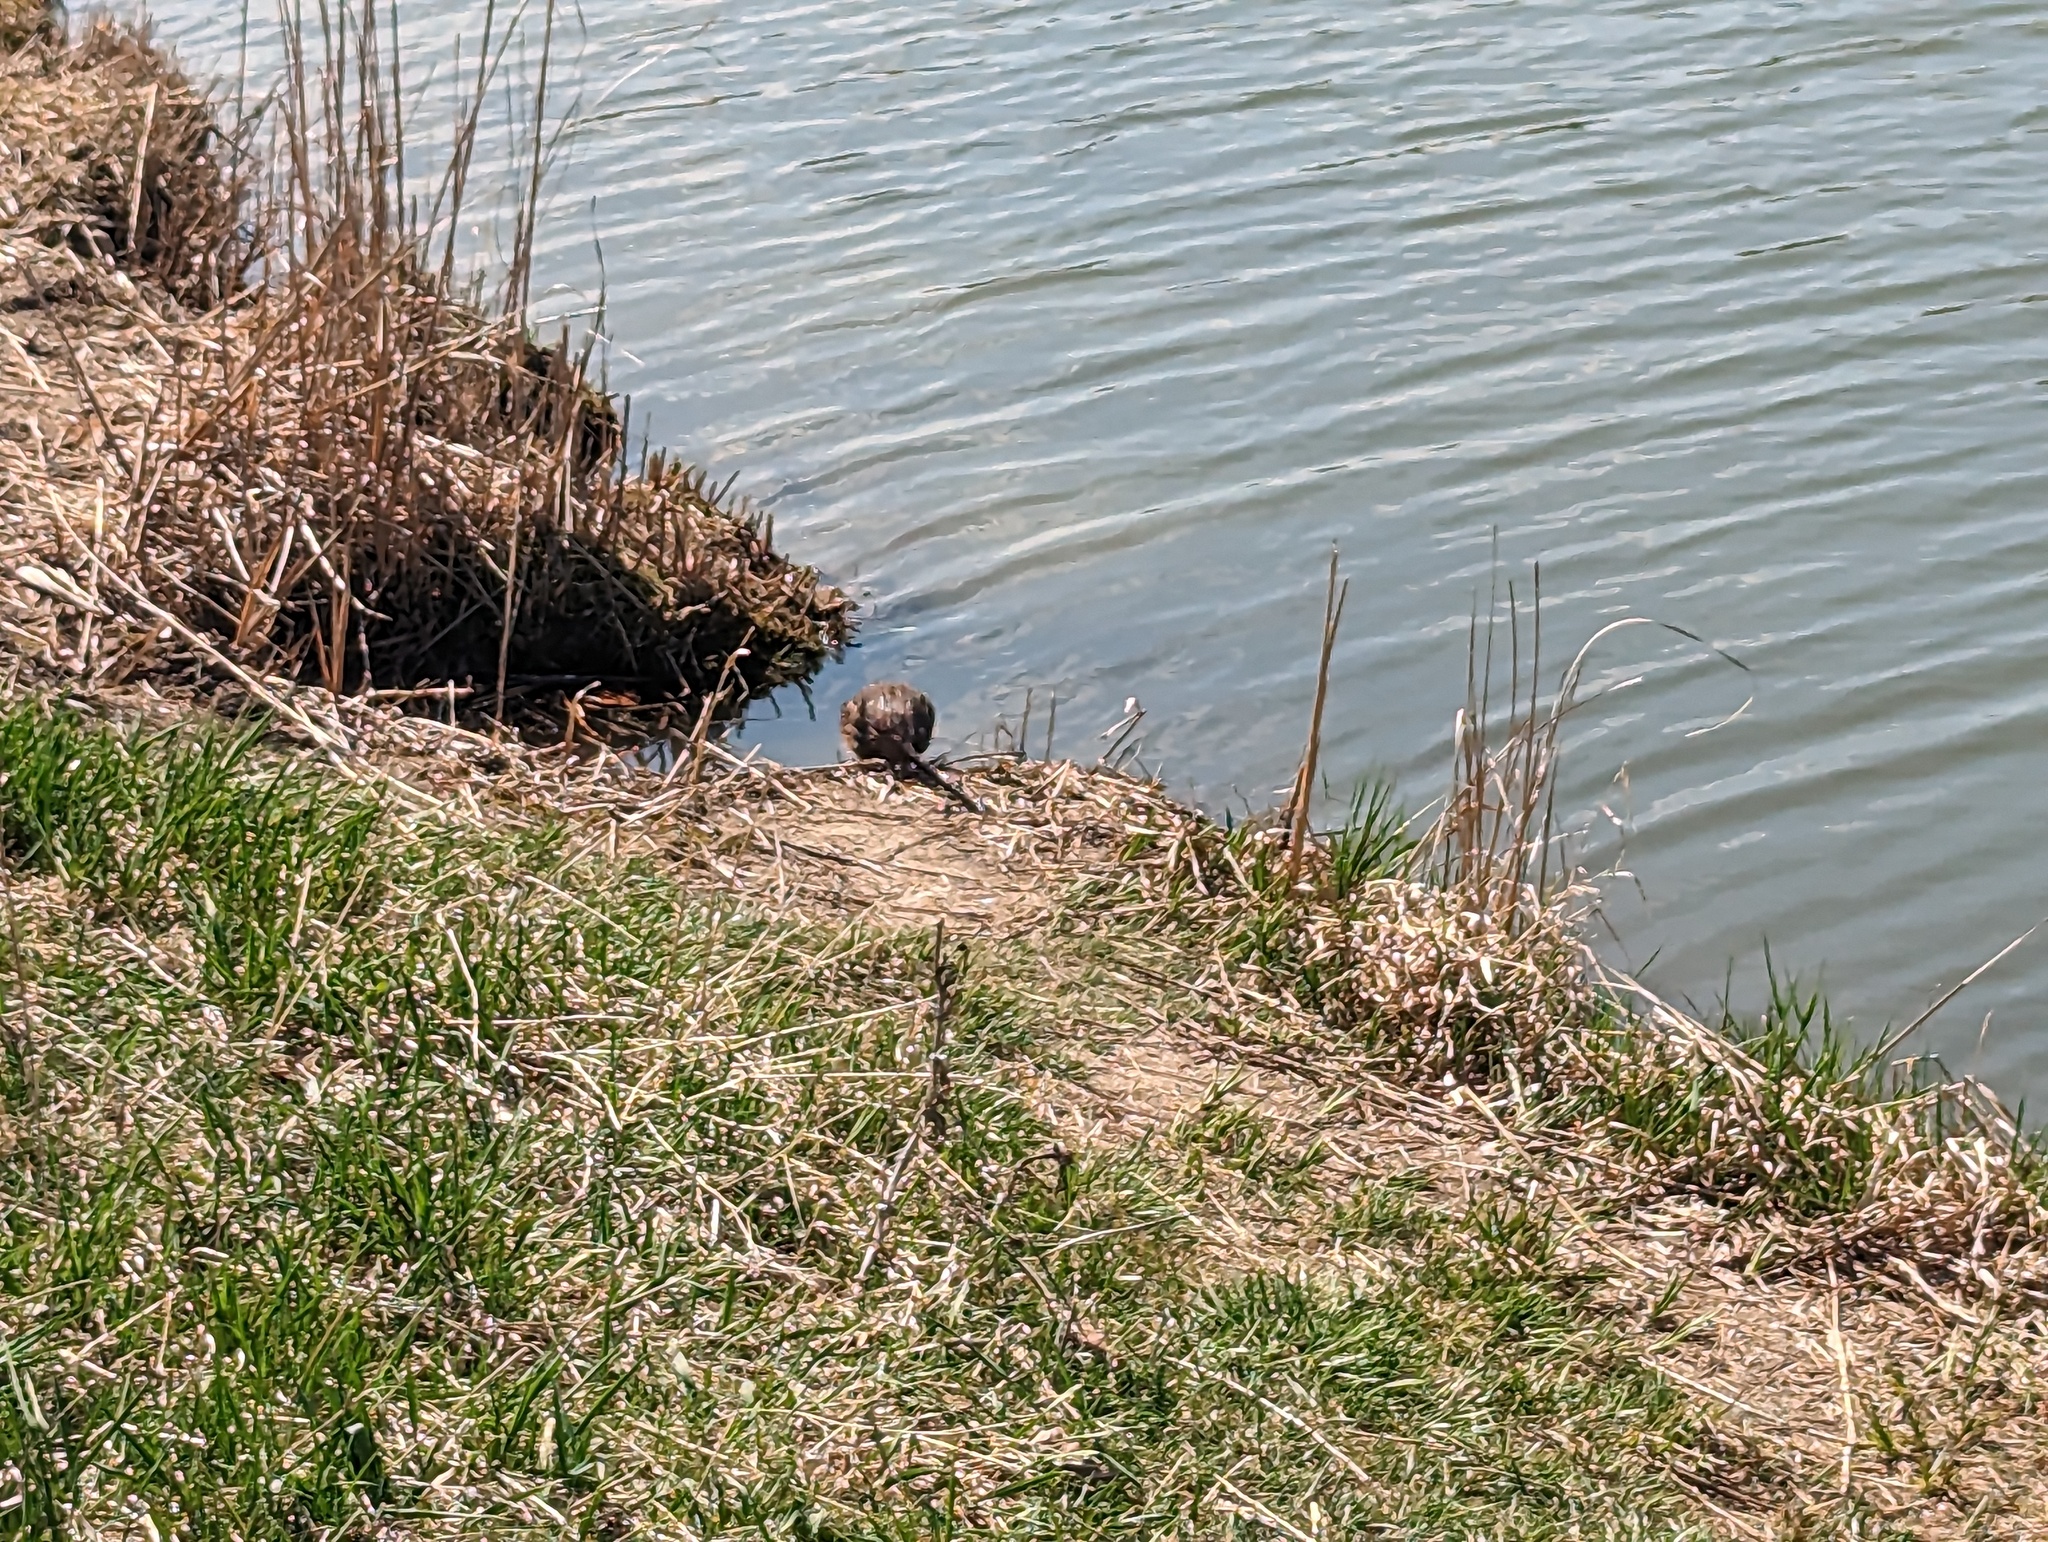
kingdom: Animalia
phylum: Chordata
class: Mammalia
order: Rodentia
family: Cricetidae
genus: Ondatra
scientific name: Ondatra zibethicus
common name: Muskrat
